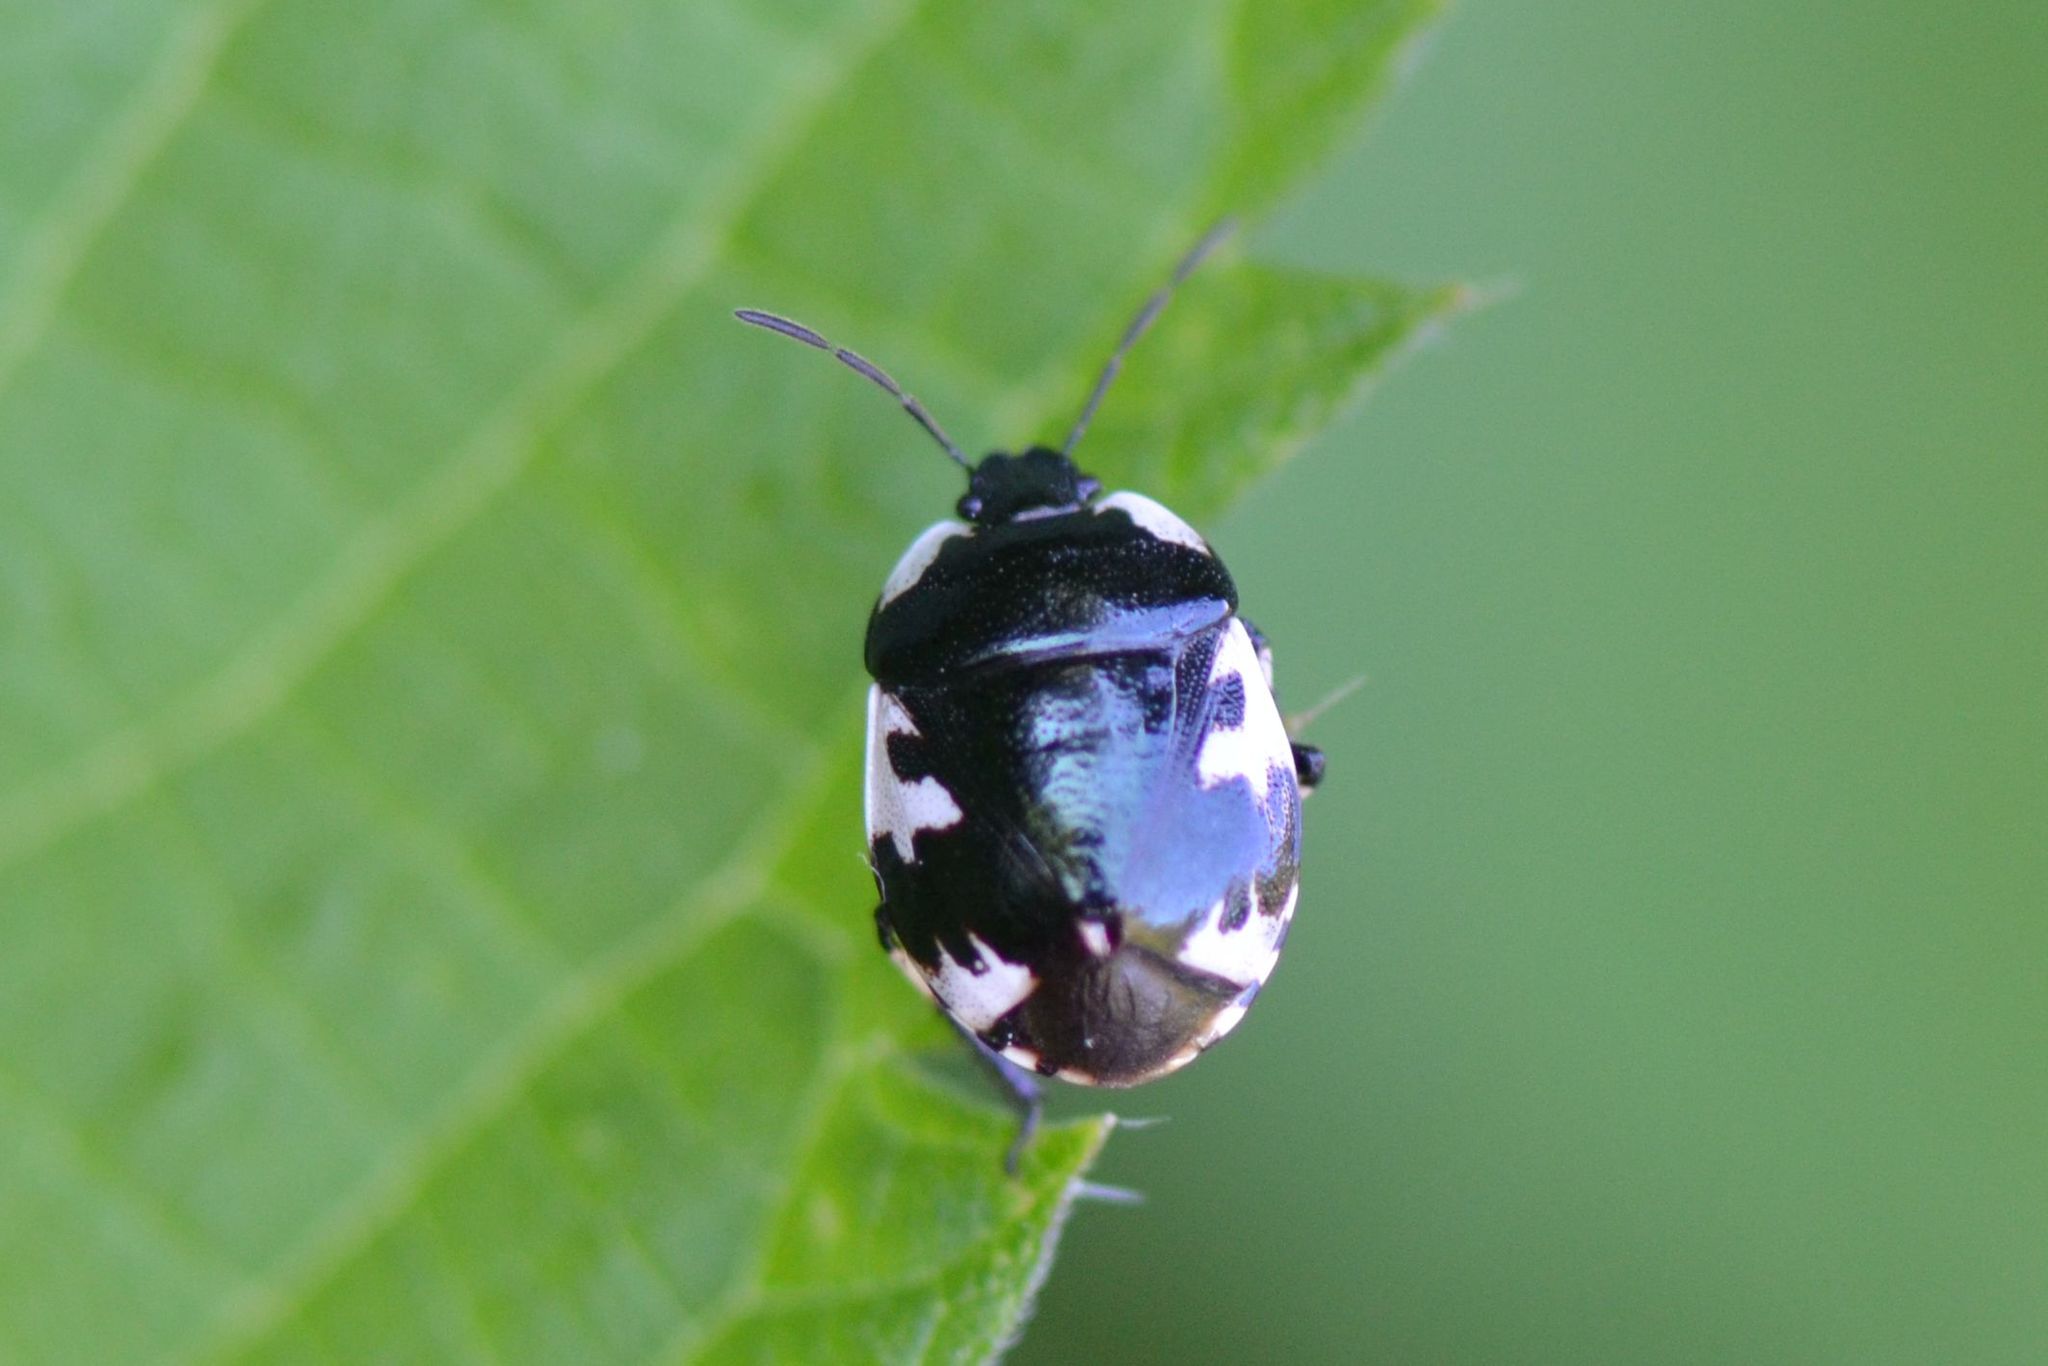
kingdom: Animalia
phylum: Arthropoda
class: Insecta
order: Hemiptera
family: Cydnidae
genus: Tritomegas
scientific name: Tritomegas rotundipennis
